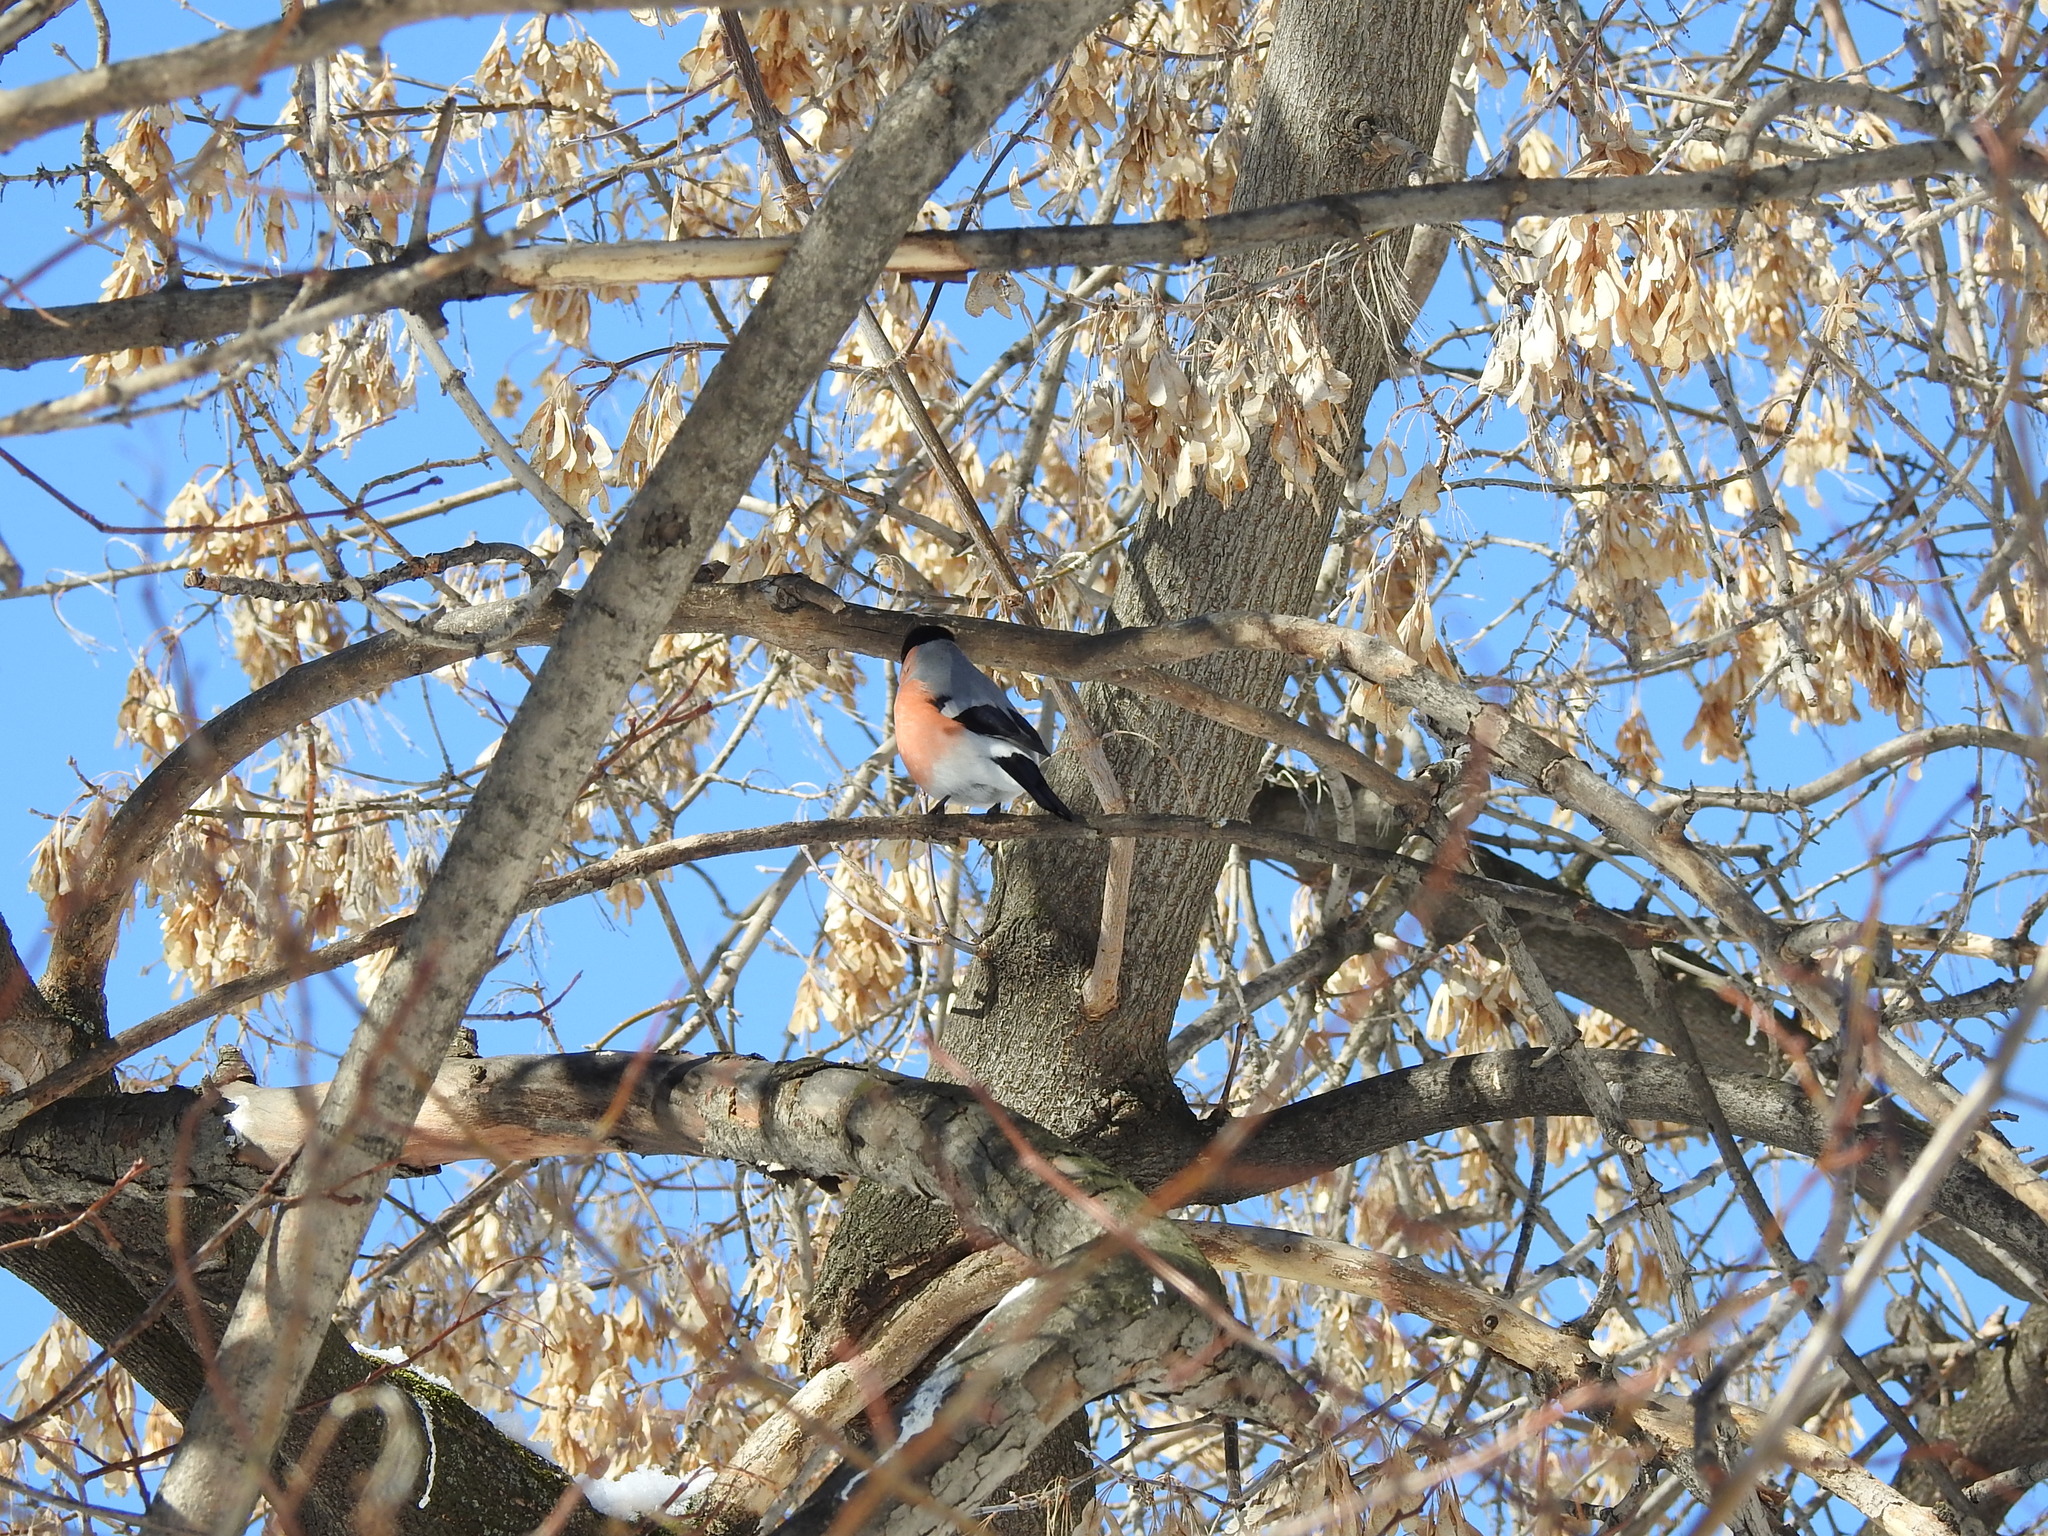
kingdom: Animalia
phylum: Chordata
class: Aves
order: Passeriformes
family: Fringillidae
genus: Pyrrhula
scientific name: Pyrrhula pyrrhula
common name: Eurasian bullfinch
